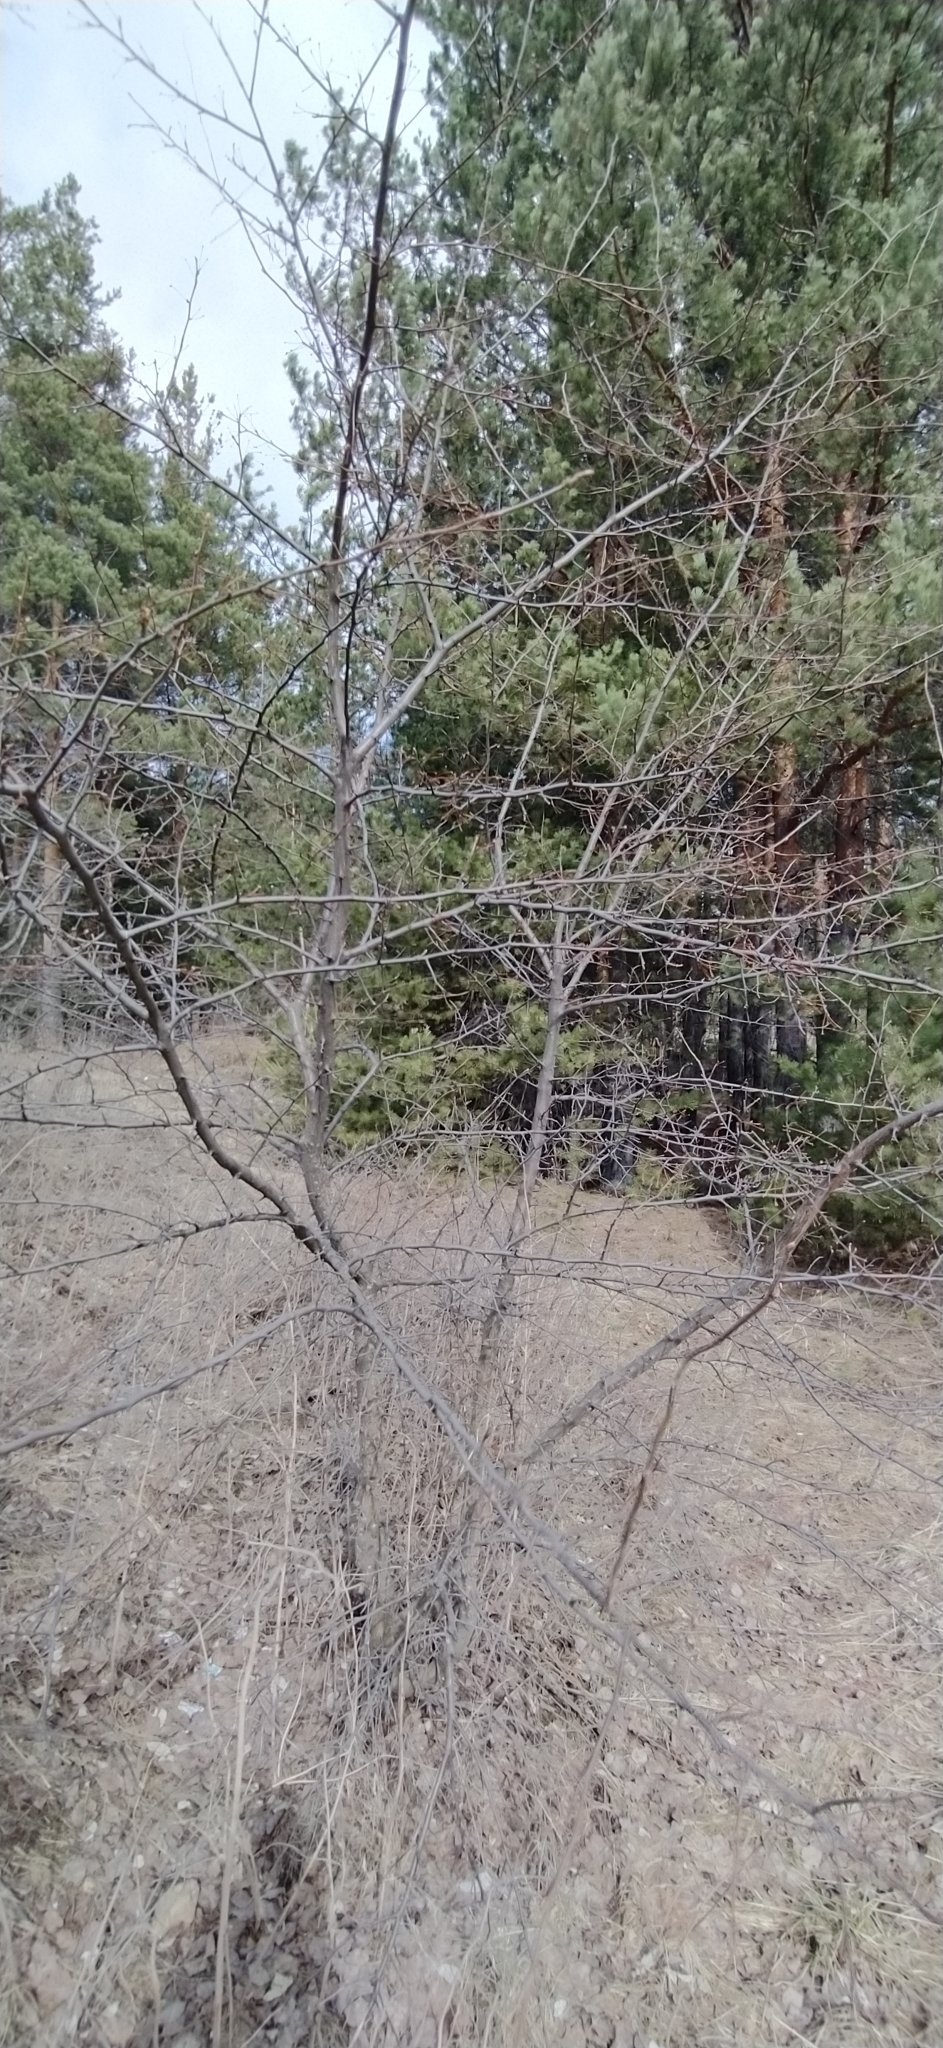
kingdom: Plantae
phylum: Tracheophyta
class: Magnoliopsida
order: Rosales
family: Rosaceae
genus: Malus
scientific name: Malus baccata
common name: Siberian crab
